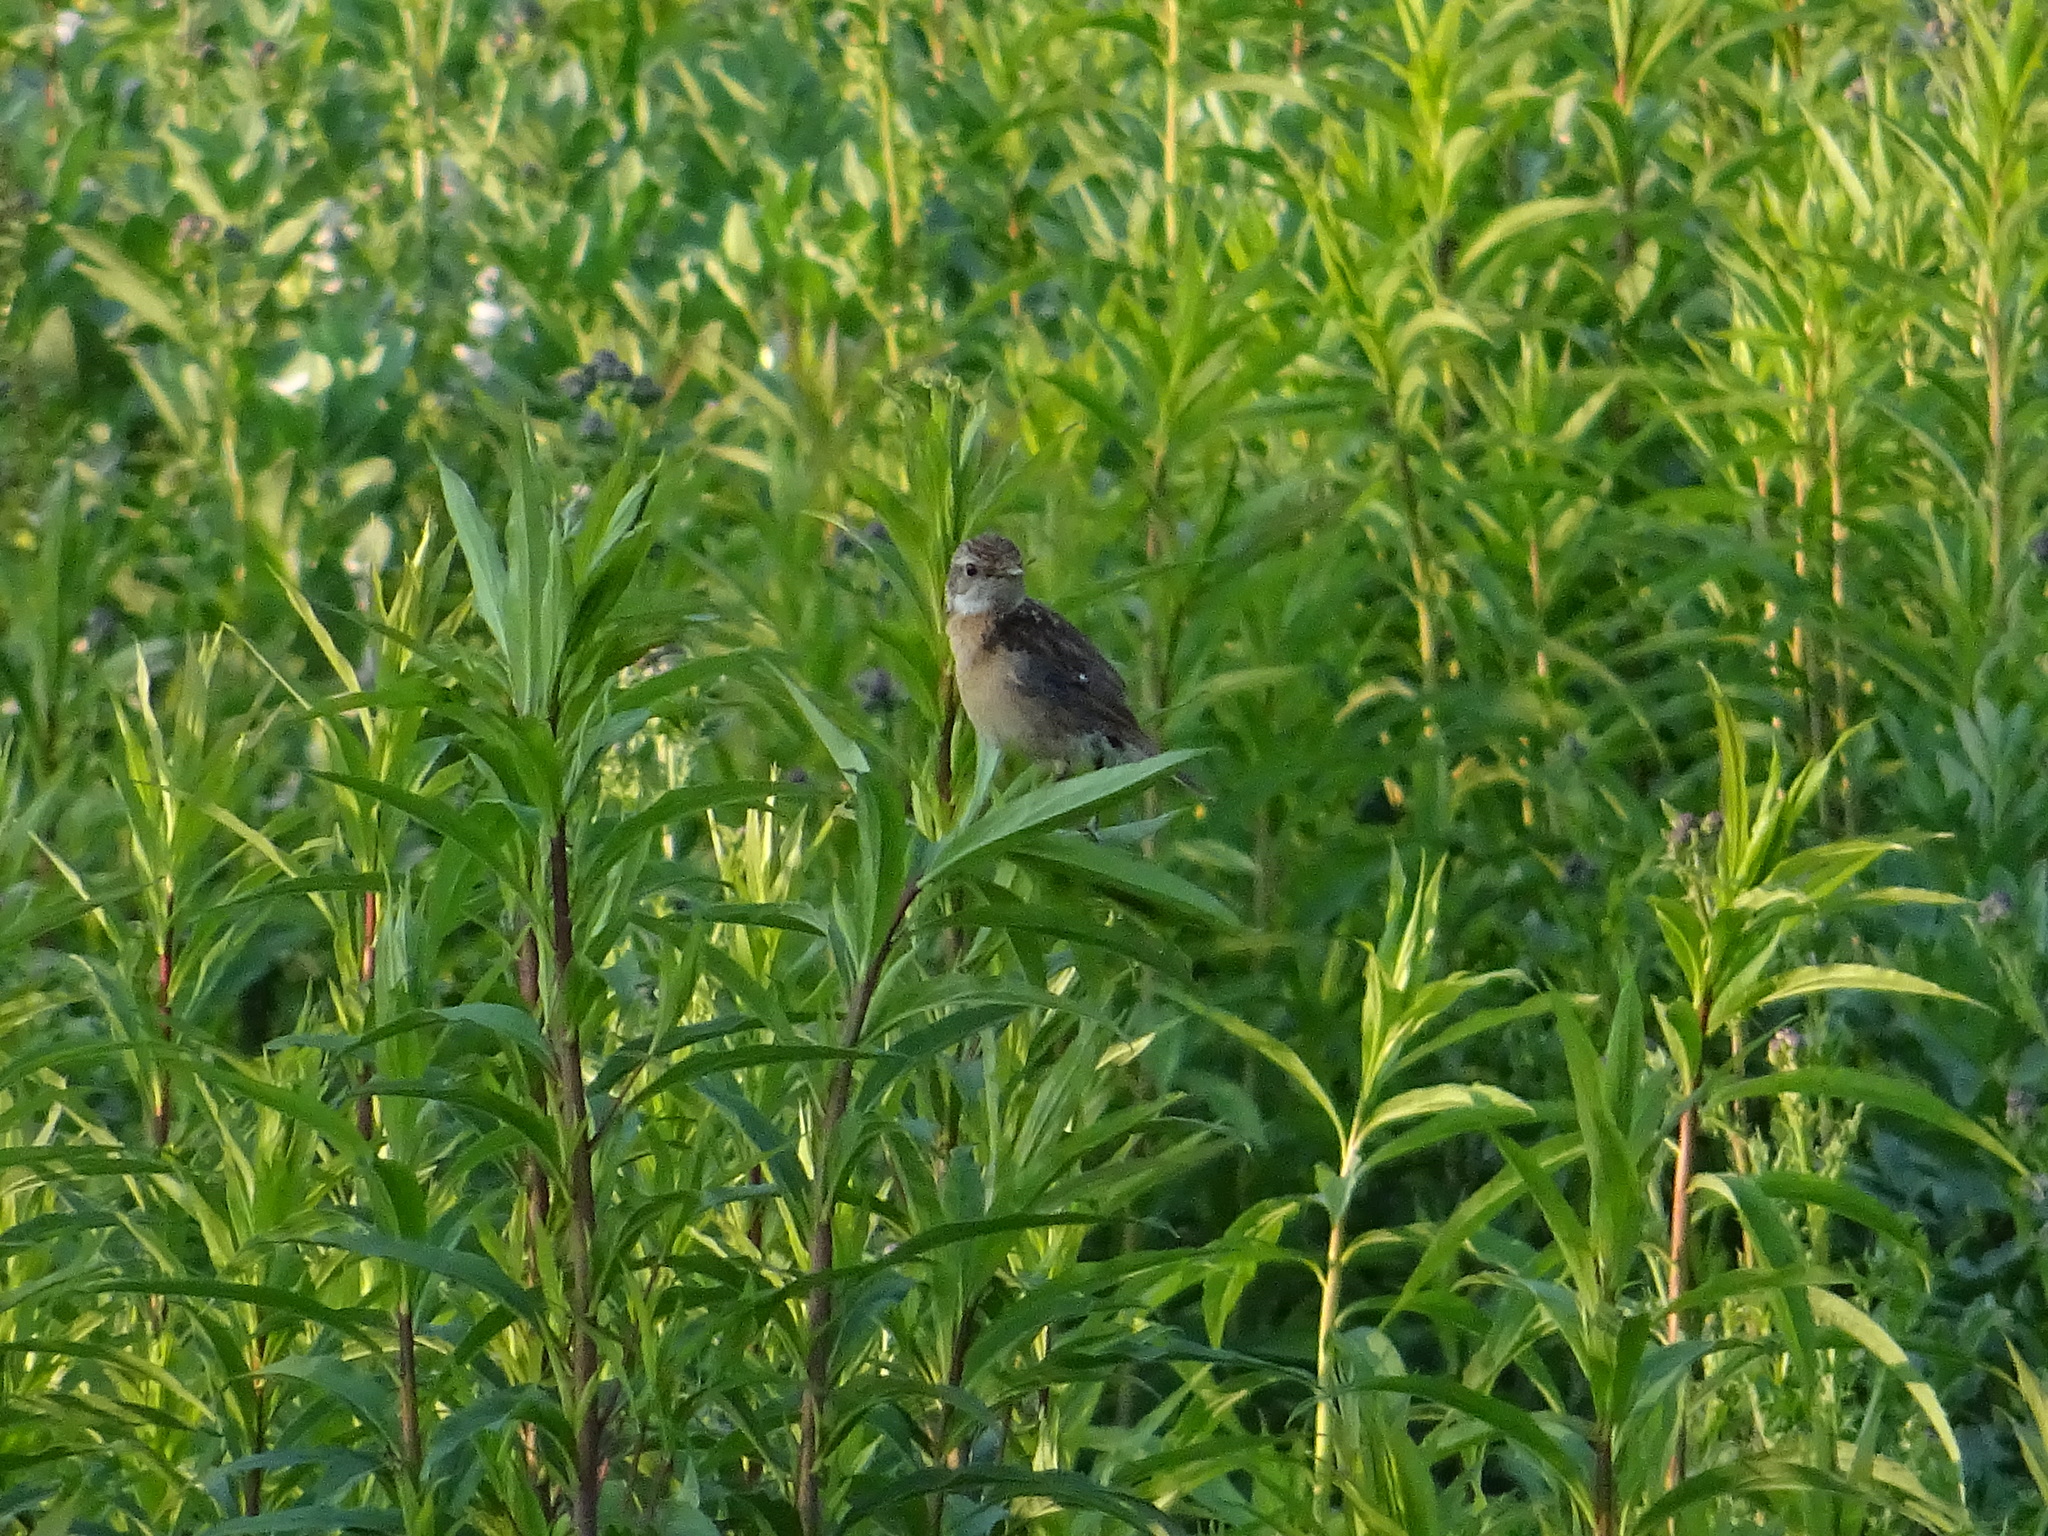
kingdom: Animalia
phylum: Chordata
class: Aves
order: Passeriformes
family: Muscicapidae
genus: Saxicola
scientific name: Saxicola rubicola
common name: European stonechat
